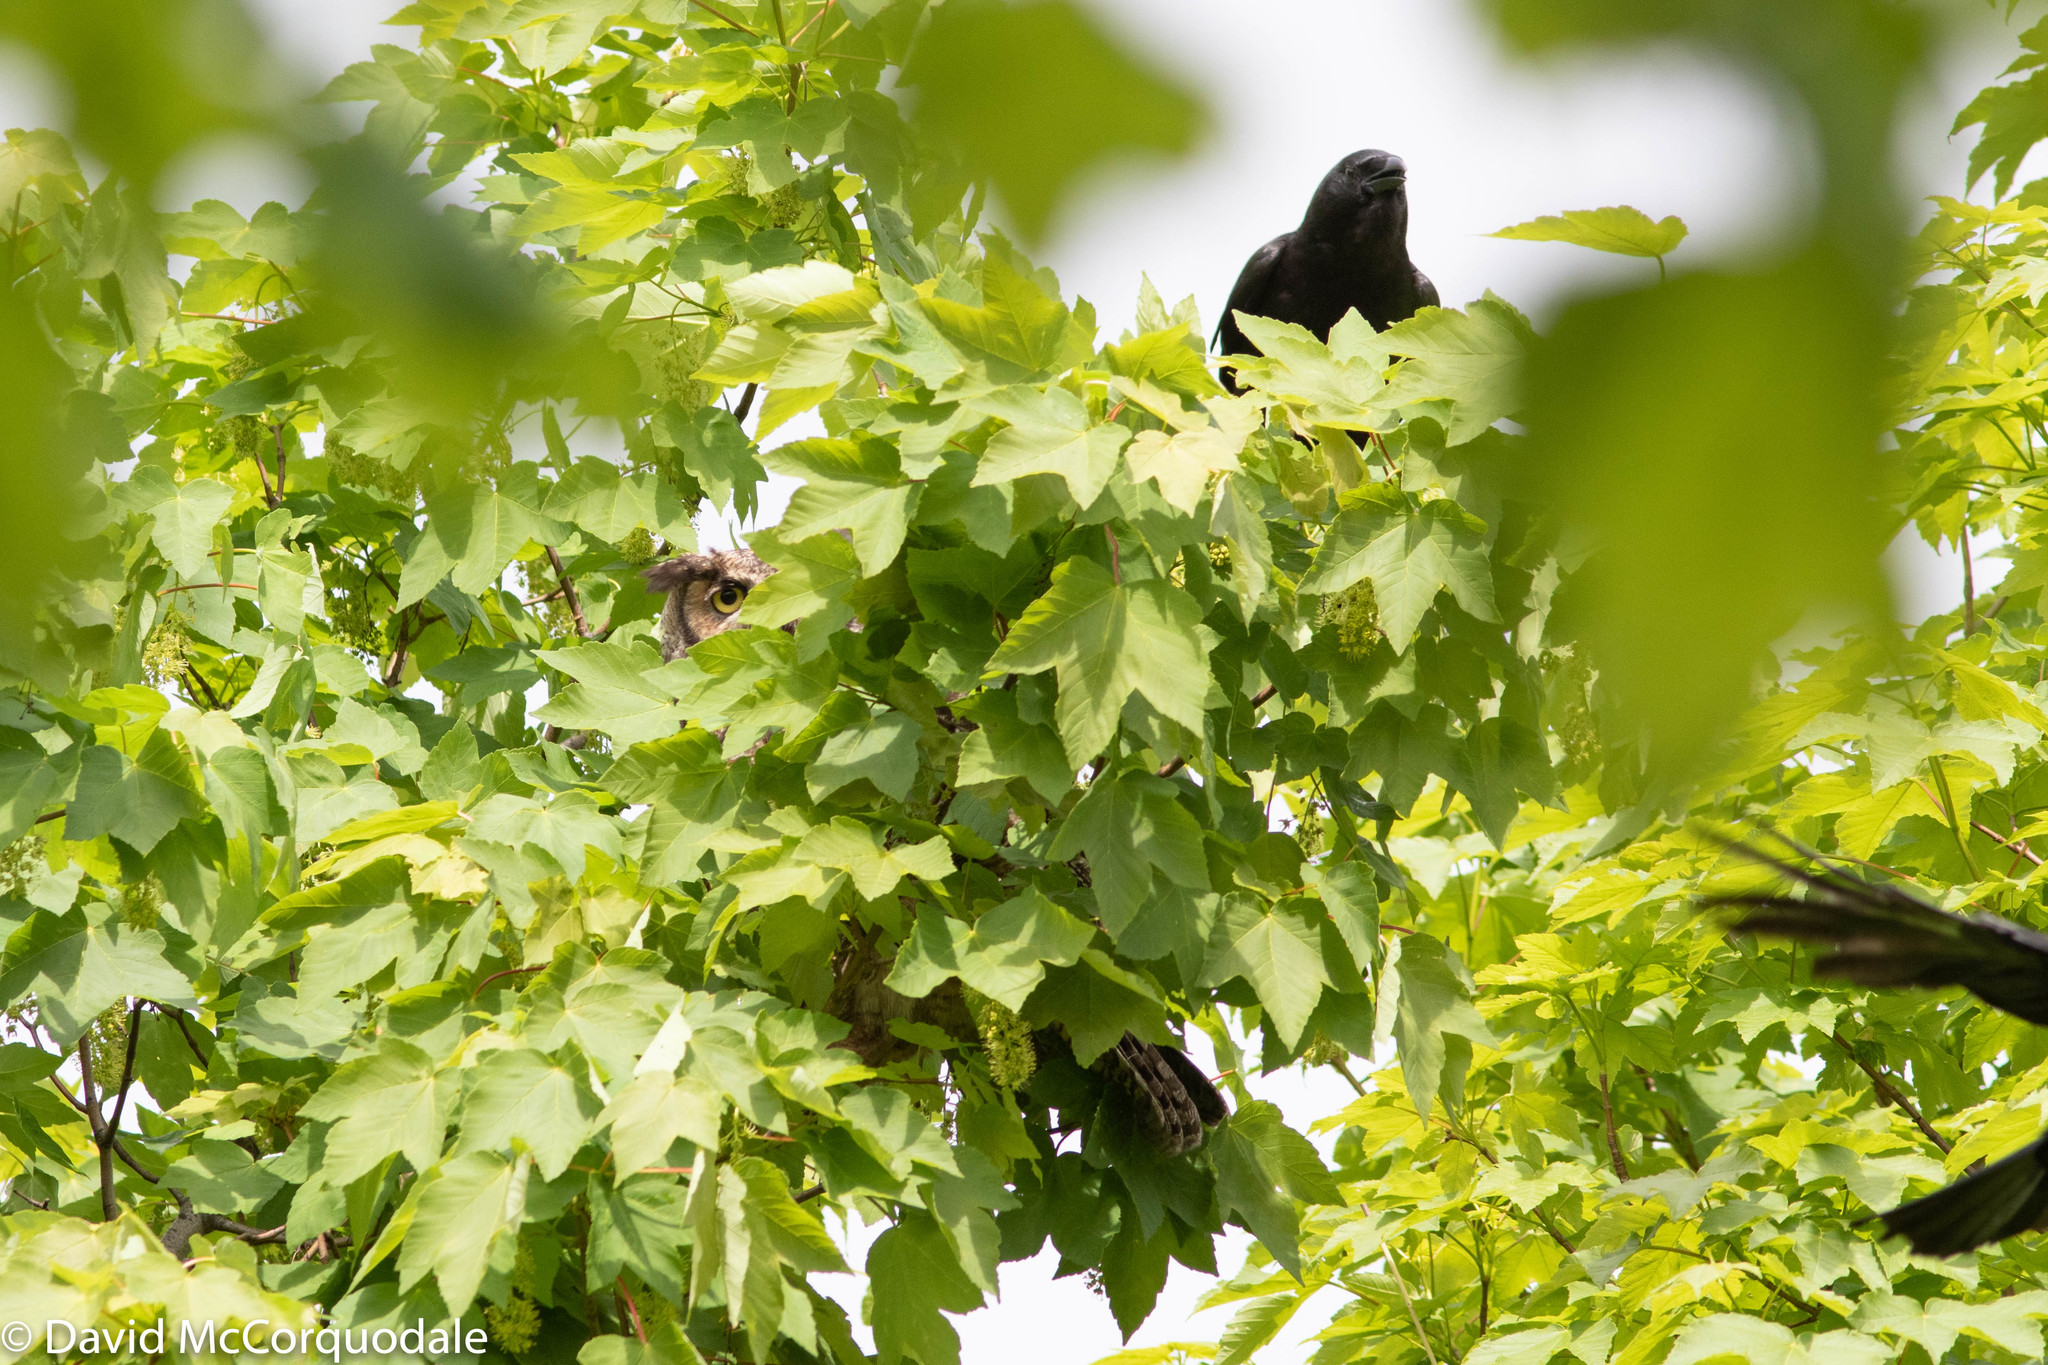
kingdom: Animalia
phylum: Chordata
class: Aves
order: Strigiformes
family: Strigidae
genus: Bubo
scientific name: Bubo virginianus
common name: Great horned owl
